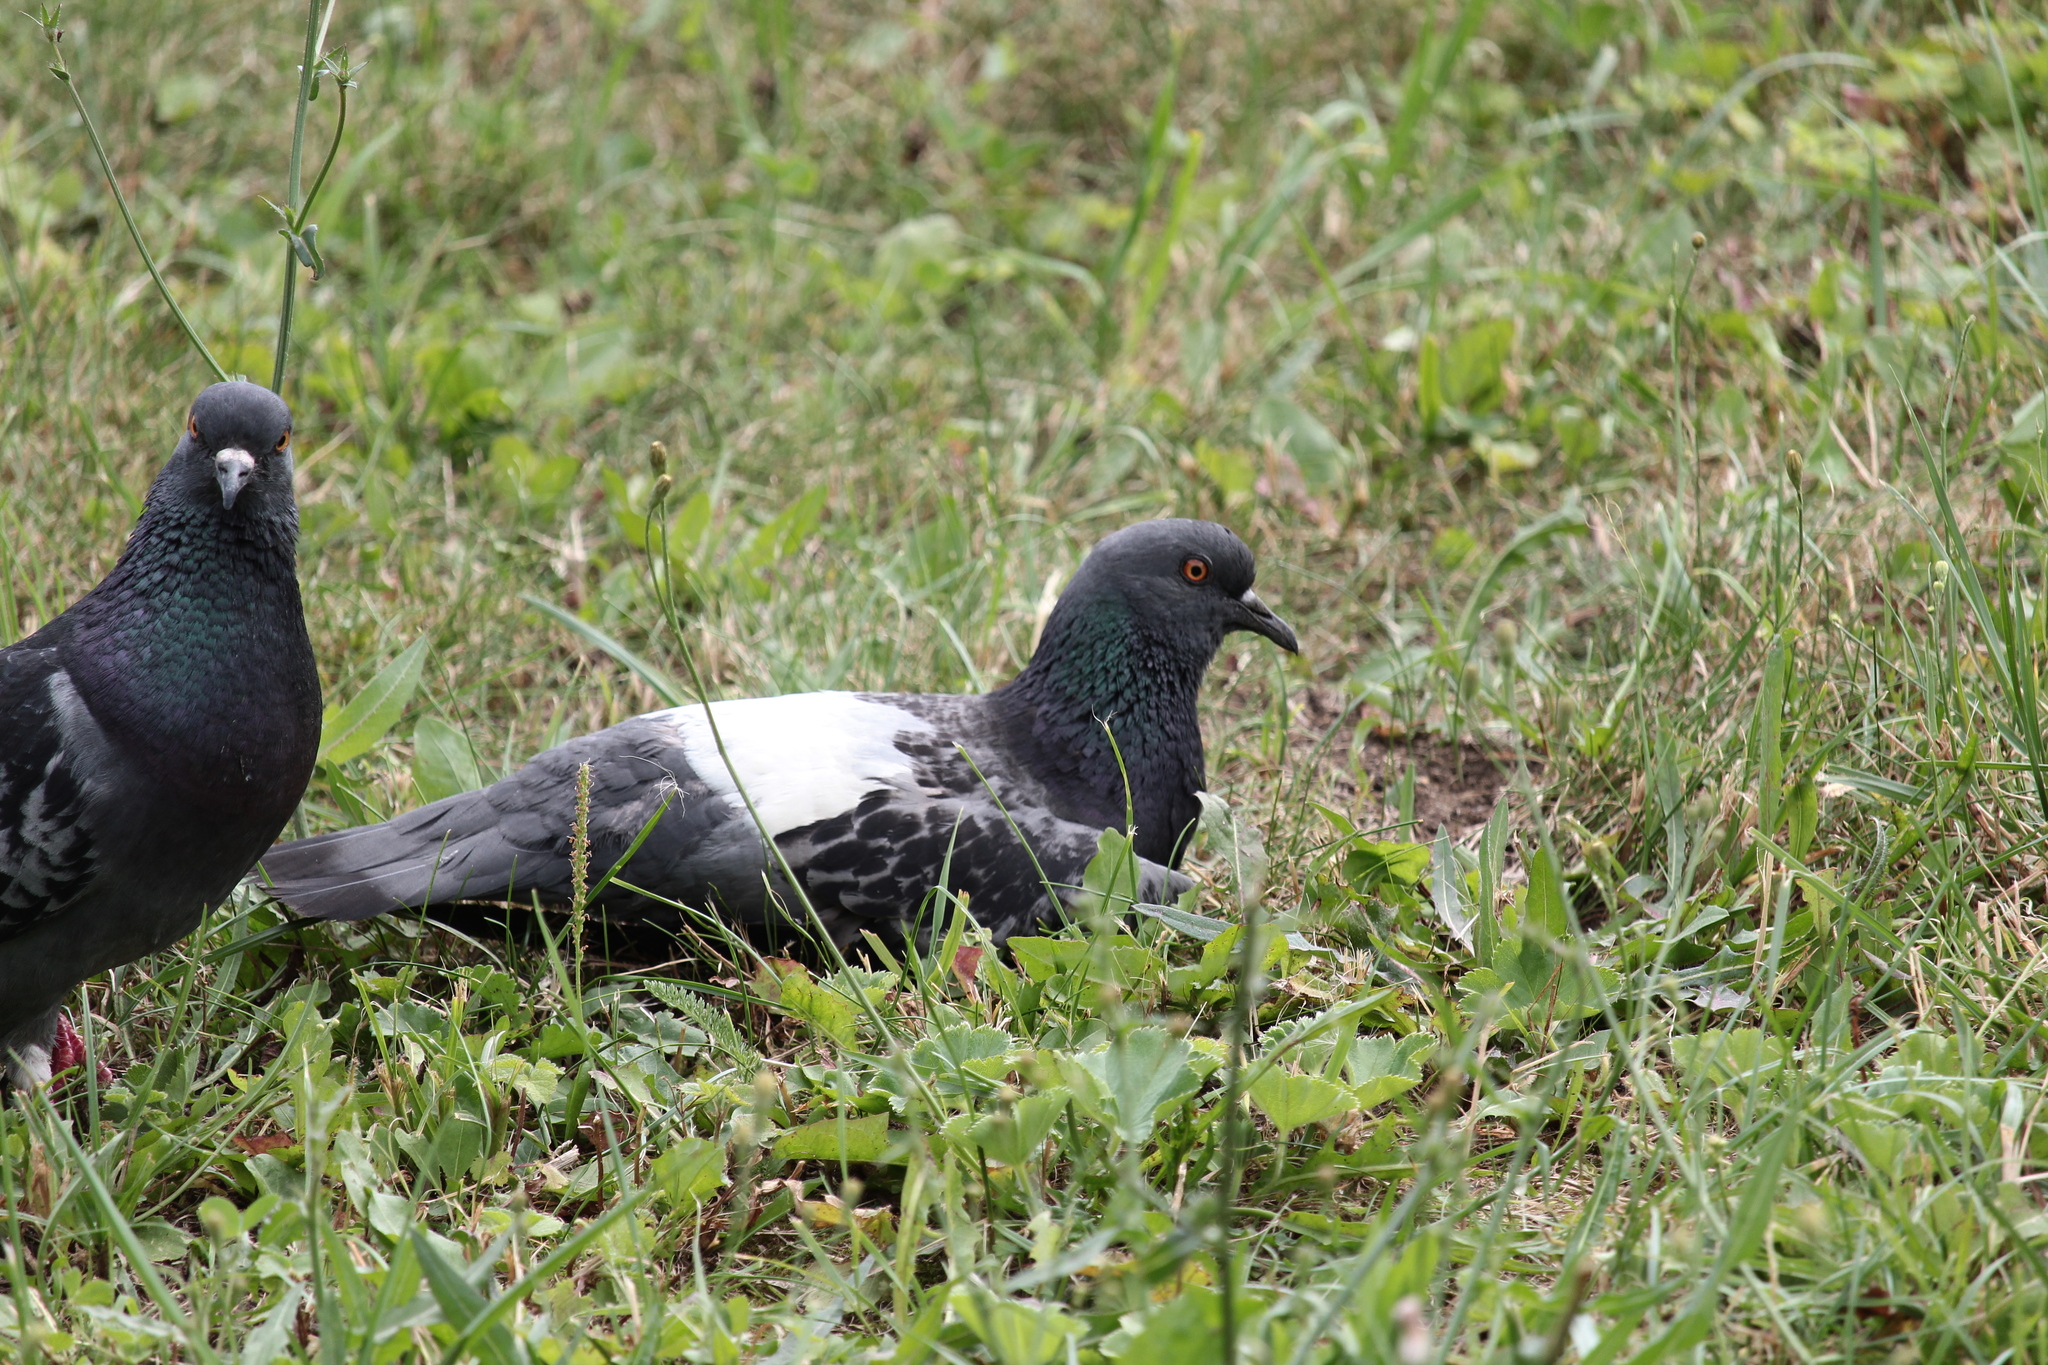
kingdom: Animalia
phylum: Chordata
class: Aves
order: Columbiformes
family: Columbidae
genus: Columba
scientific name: Columba livia
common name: Rock pigeon
